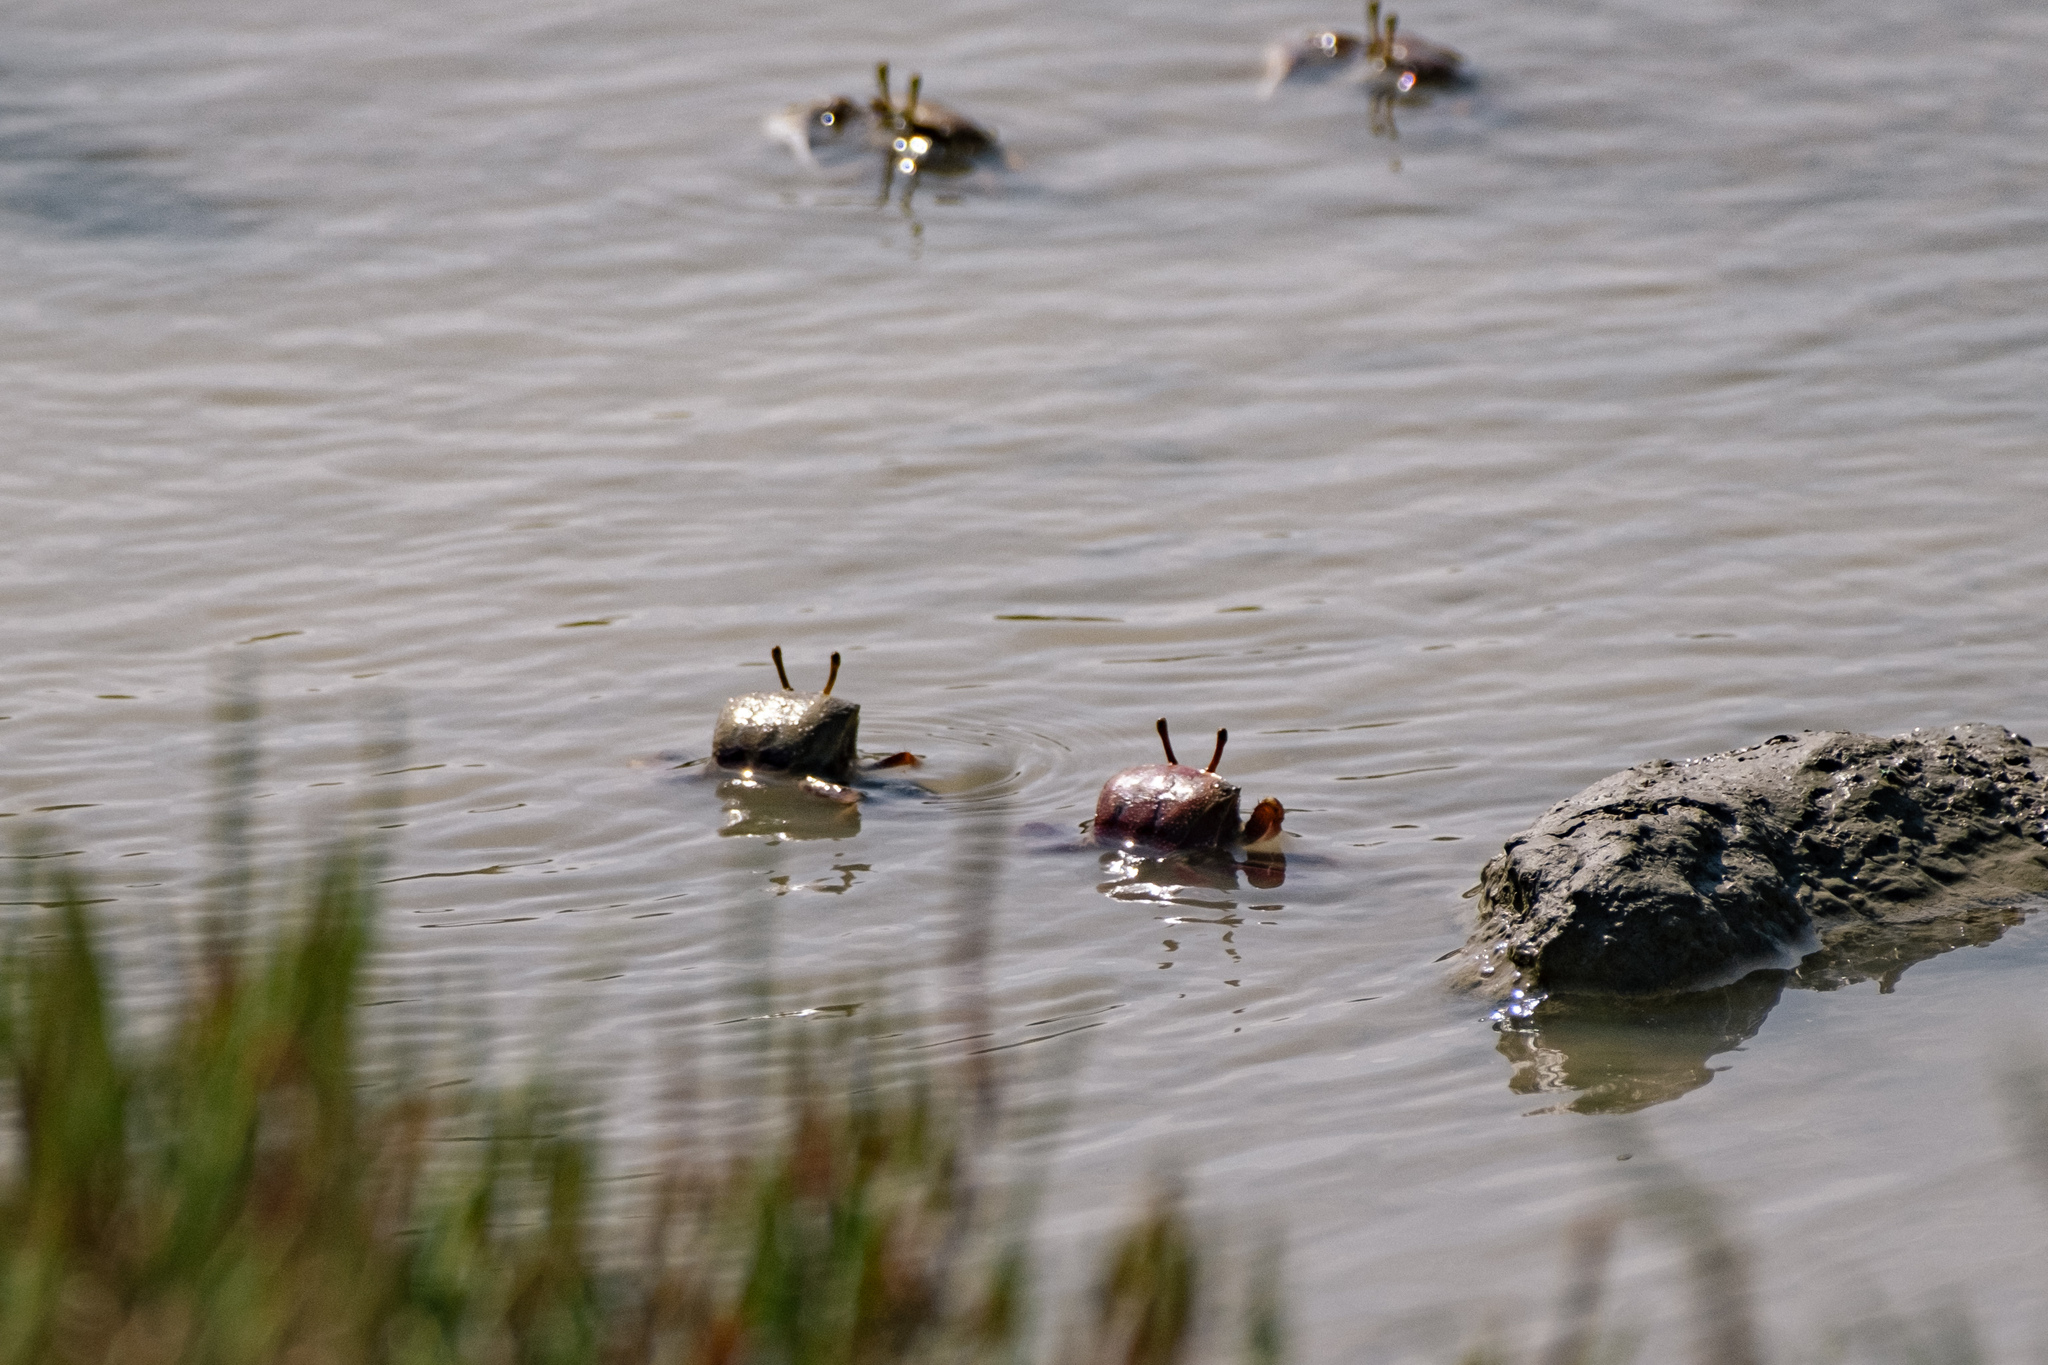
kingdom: Animalia
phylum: Arthropoda
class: Malacostraca
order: Decapoda
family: Ocypodidae
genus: Afruca
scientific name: Afruca tangeri
